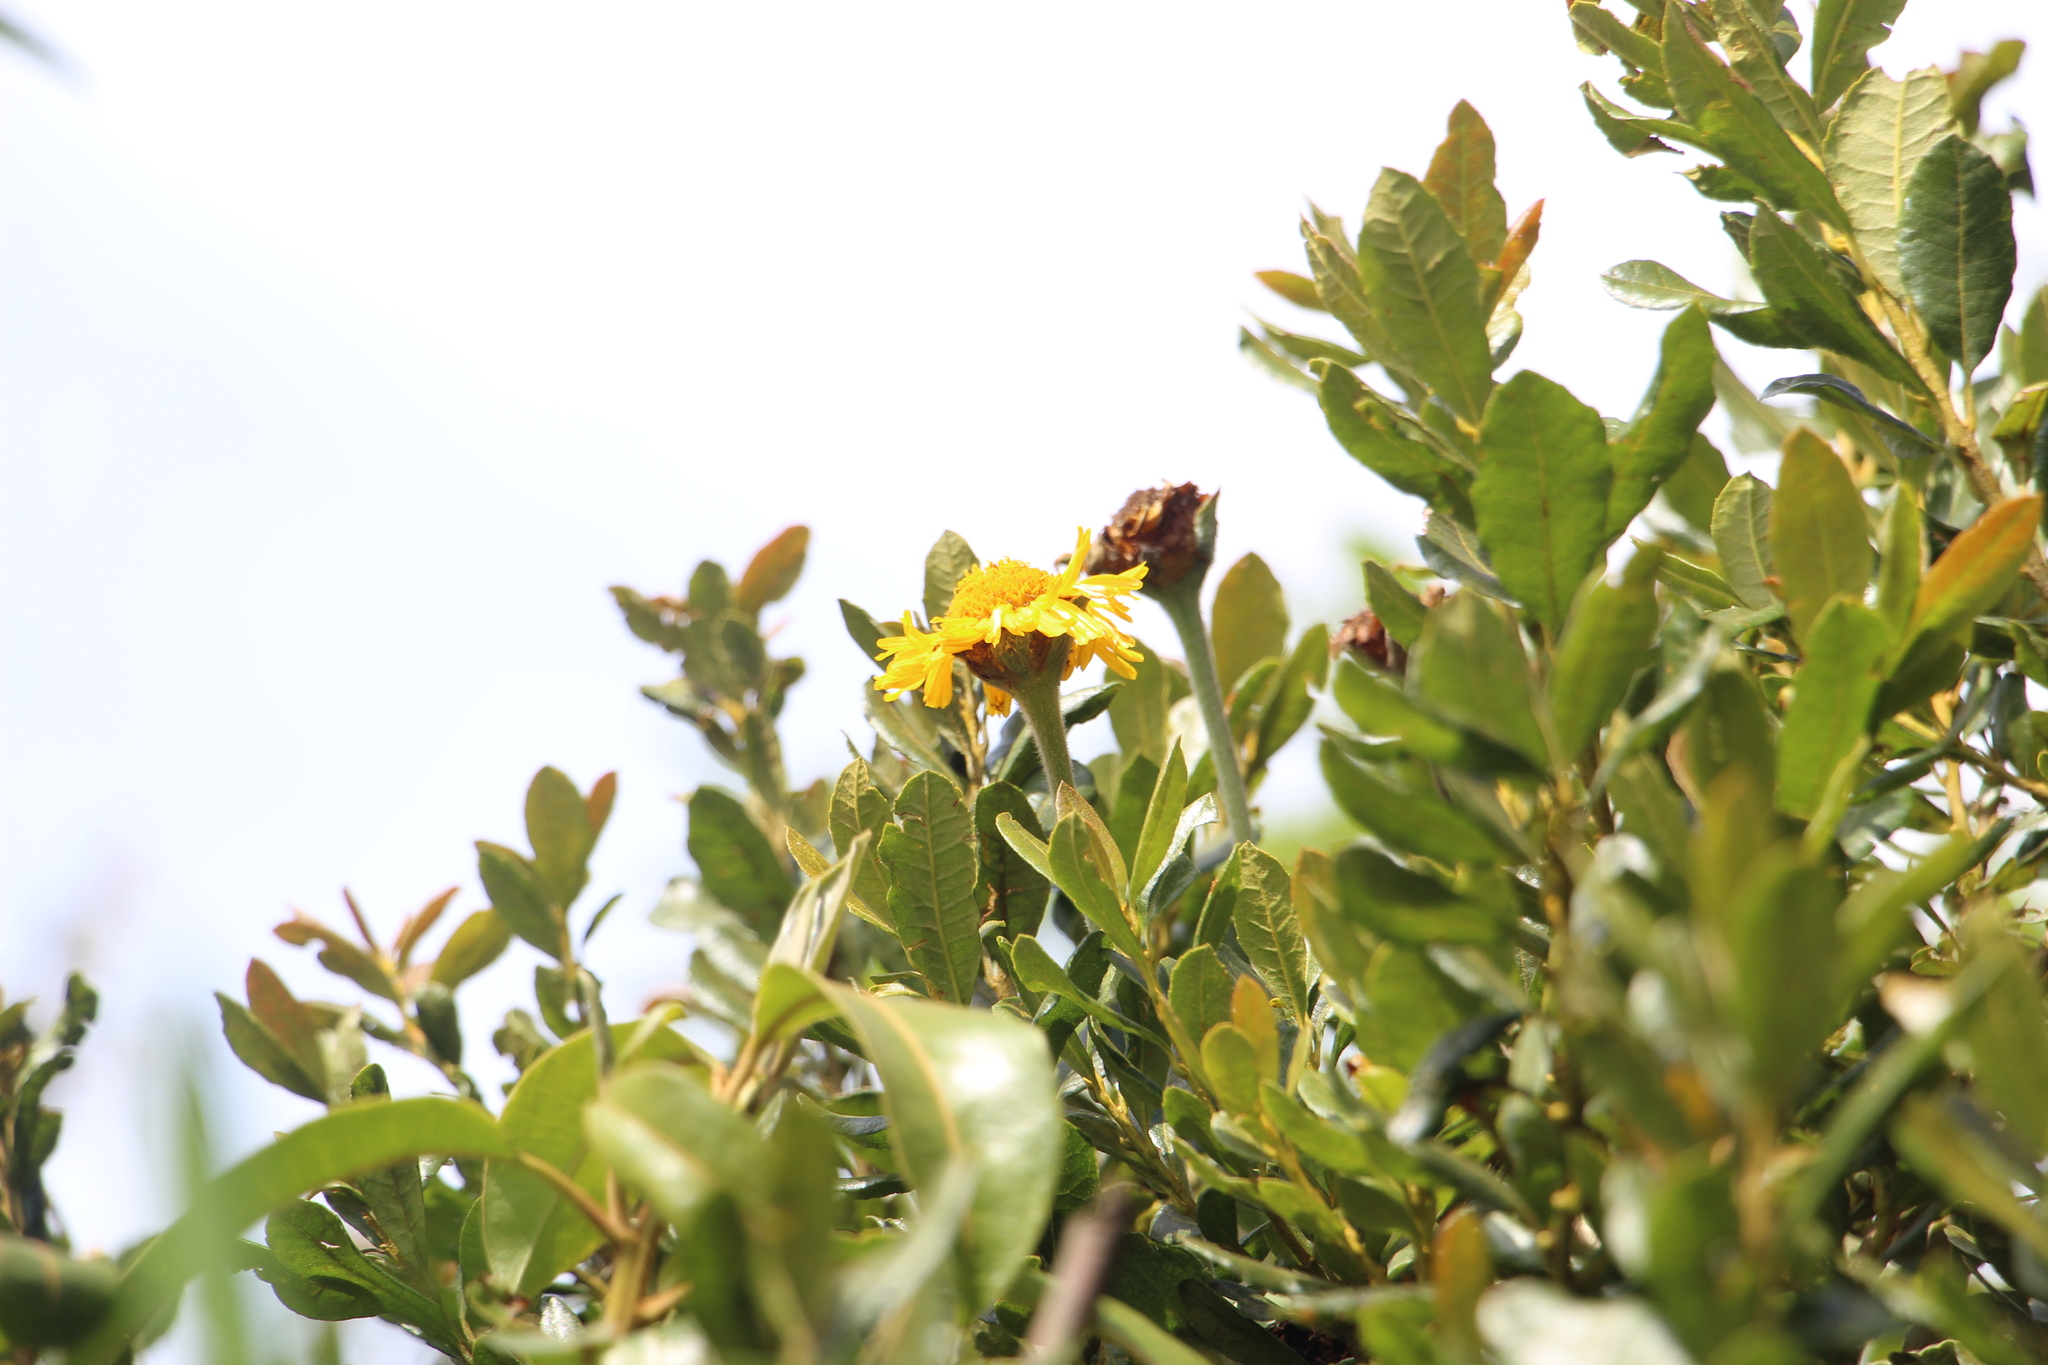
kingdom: Plantae
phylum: Tracheophyta
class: Magnoliopsida
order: Asterales
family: Asteraceae
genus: Calea
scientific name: Calea peruviana
